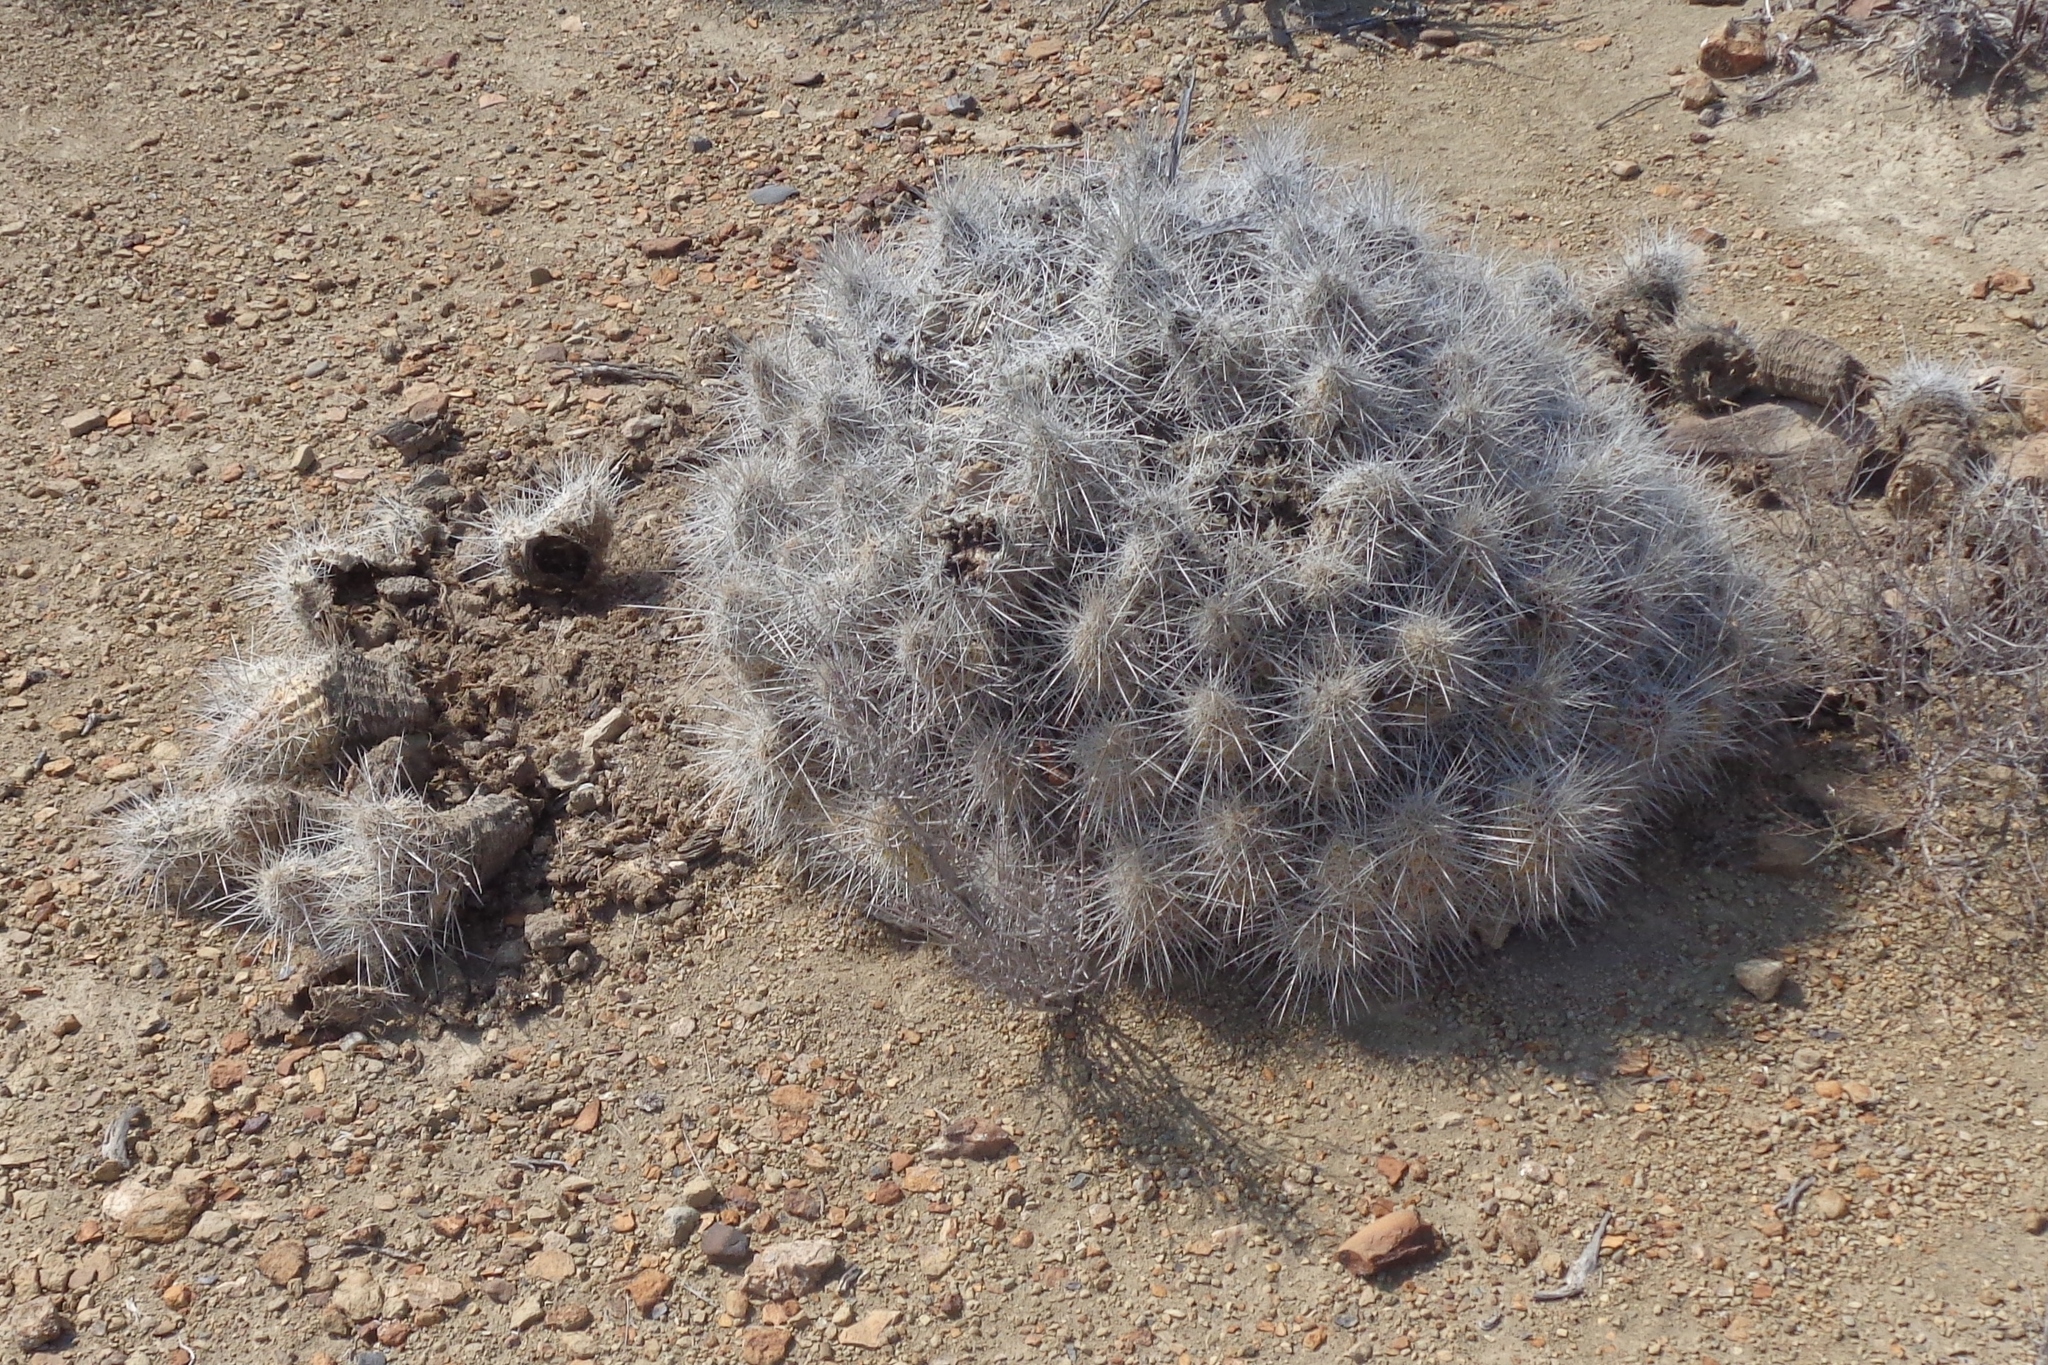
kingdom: Plantae
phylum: Tracheophyta
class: Magnoliopsida
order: Caryophyllales
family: Cactaceae
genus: Echinocereus
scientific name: Echinocereus stramineus
